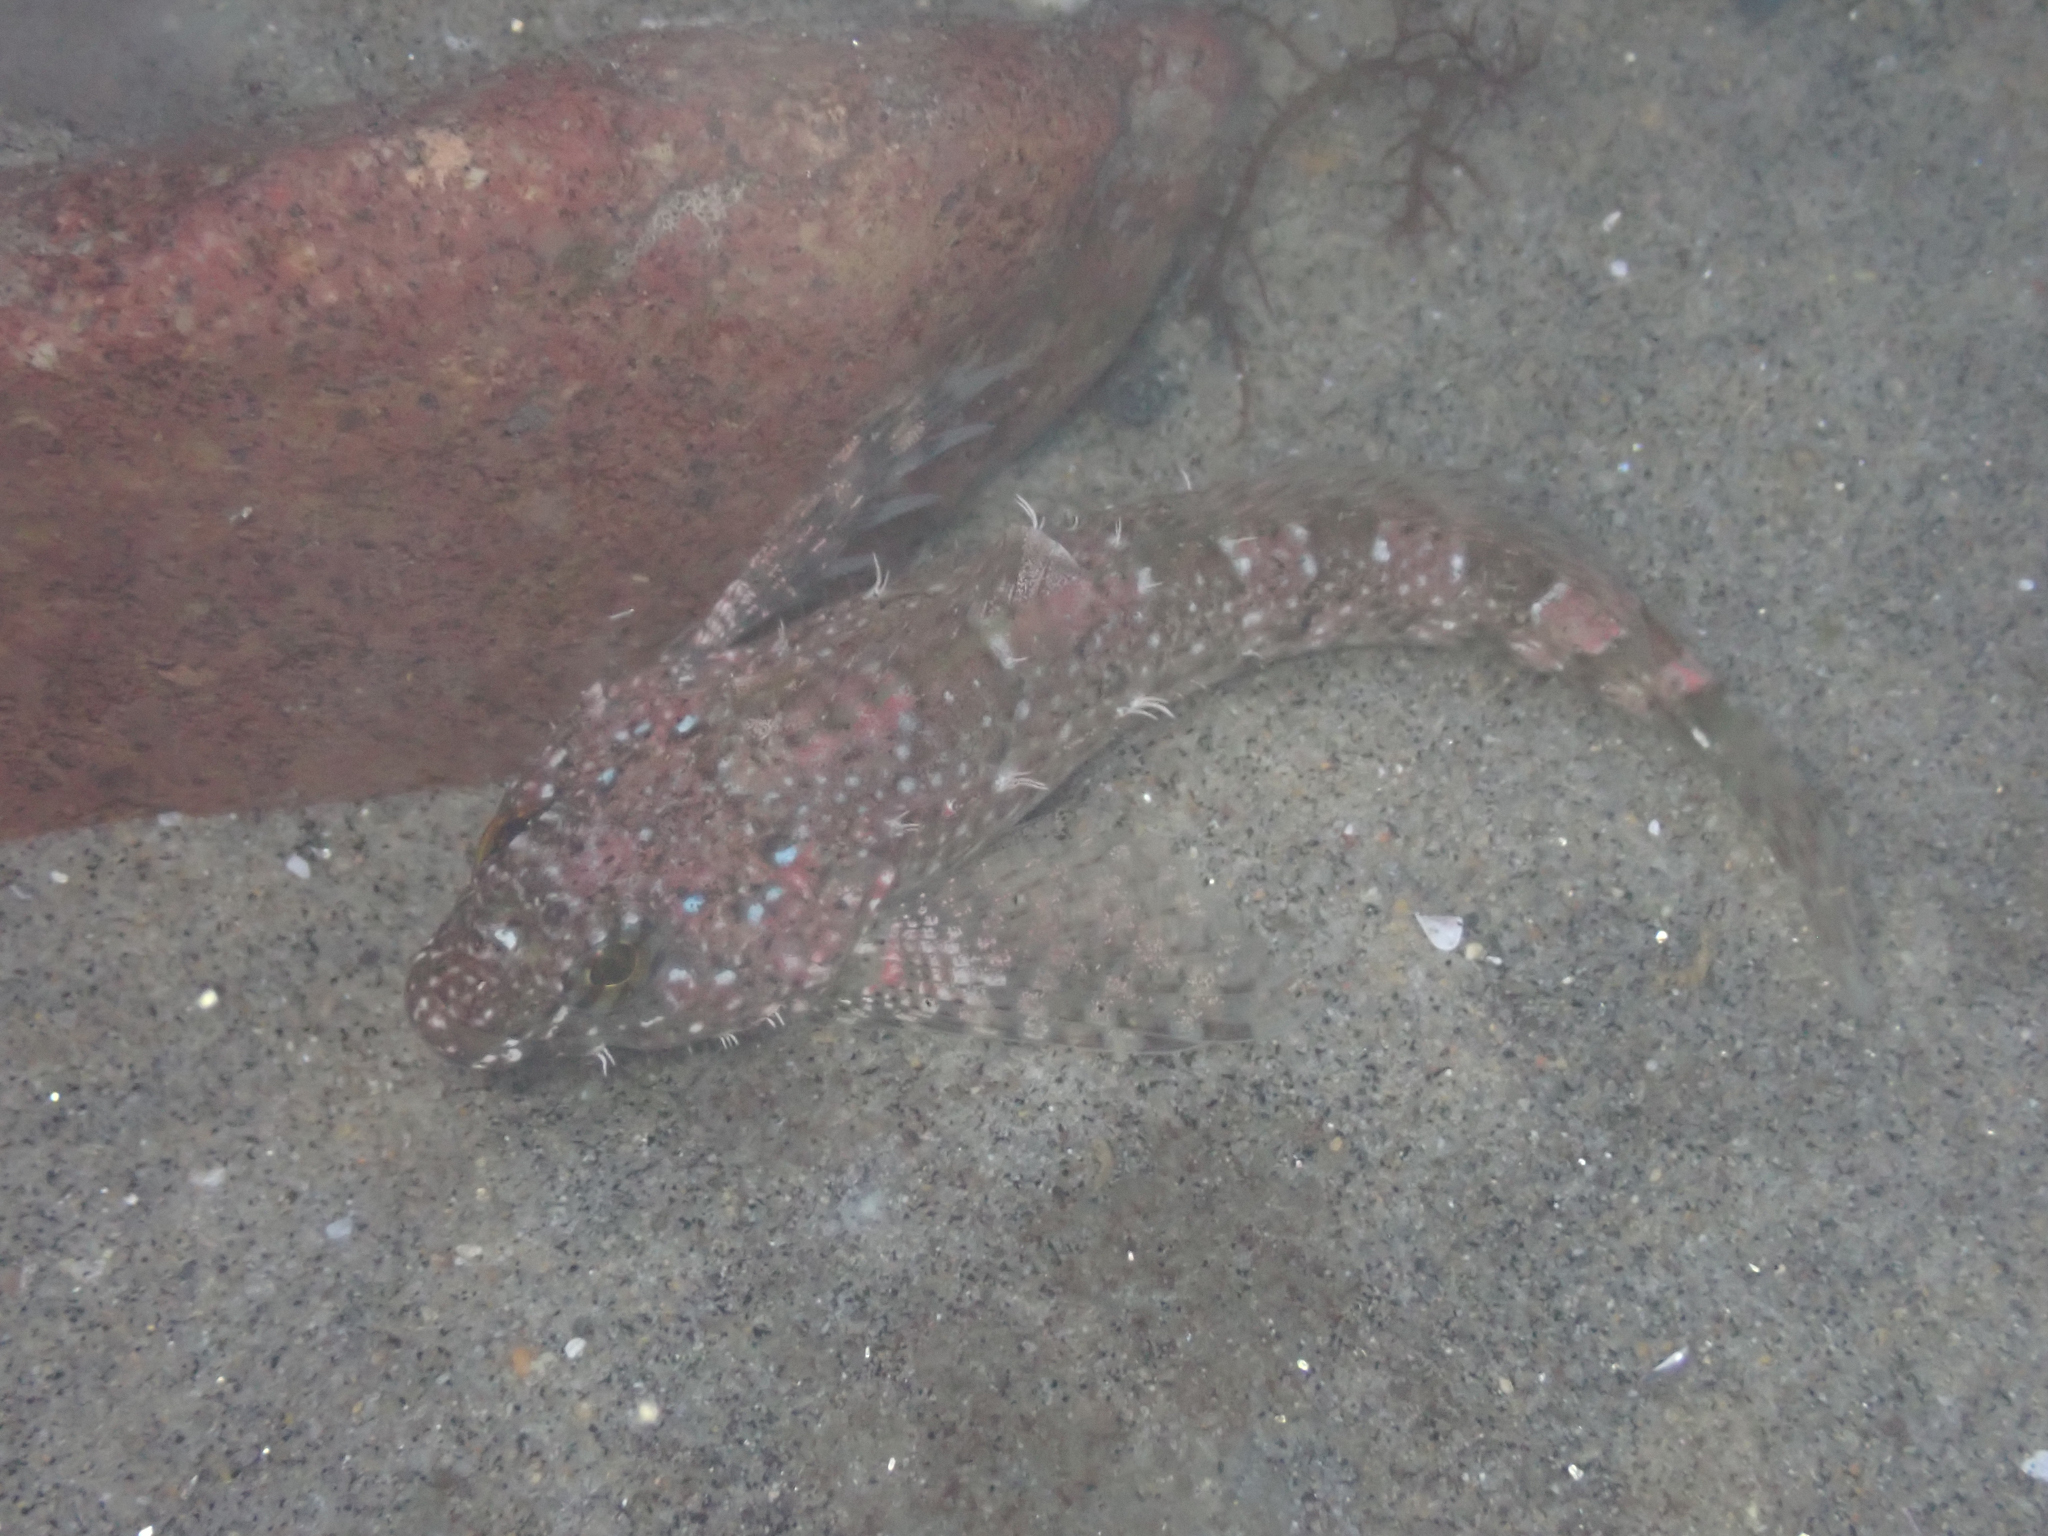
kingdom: Animalia
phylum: Chordata
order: Scorpaeniformes
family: Cottidae
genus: Clinocottus
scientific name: Clinocottus analis
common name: Woolly sculpin
